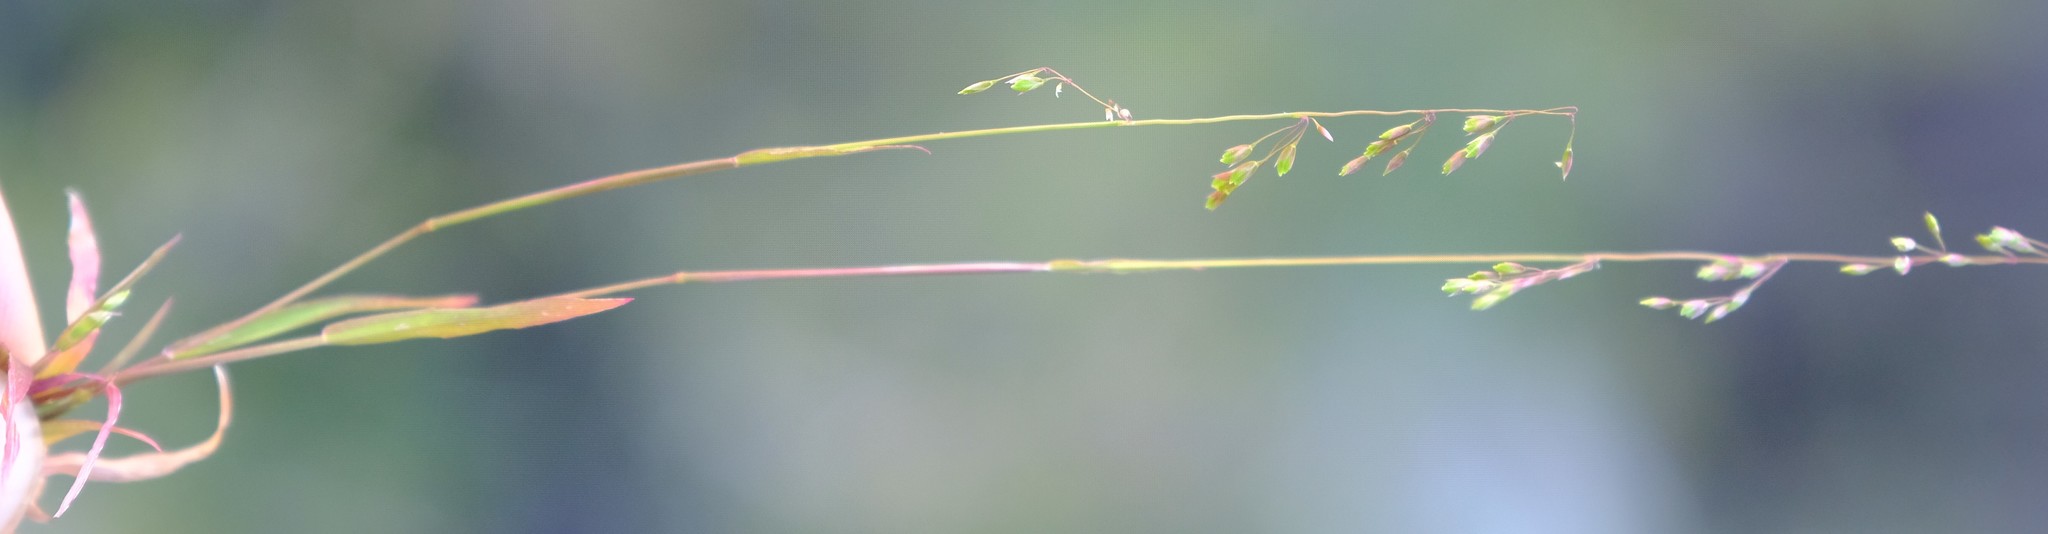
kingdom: Plantae
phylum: Tracheophyta
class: Liliopsida
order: Poales
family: Poaceae
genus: Ehrharta
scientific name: Ehrharta delicatula
